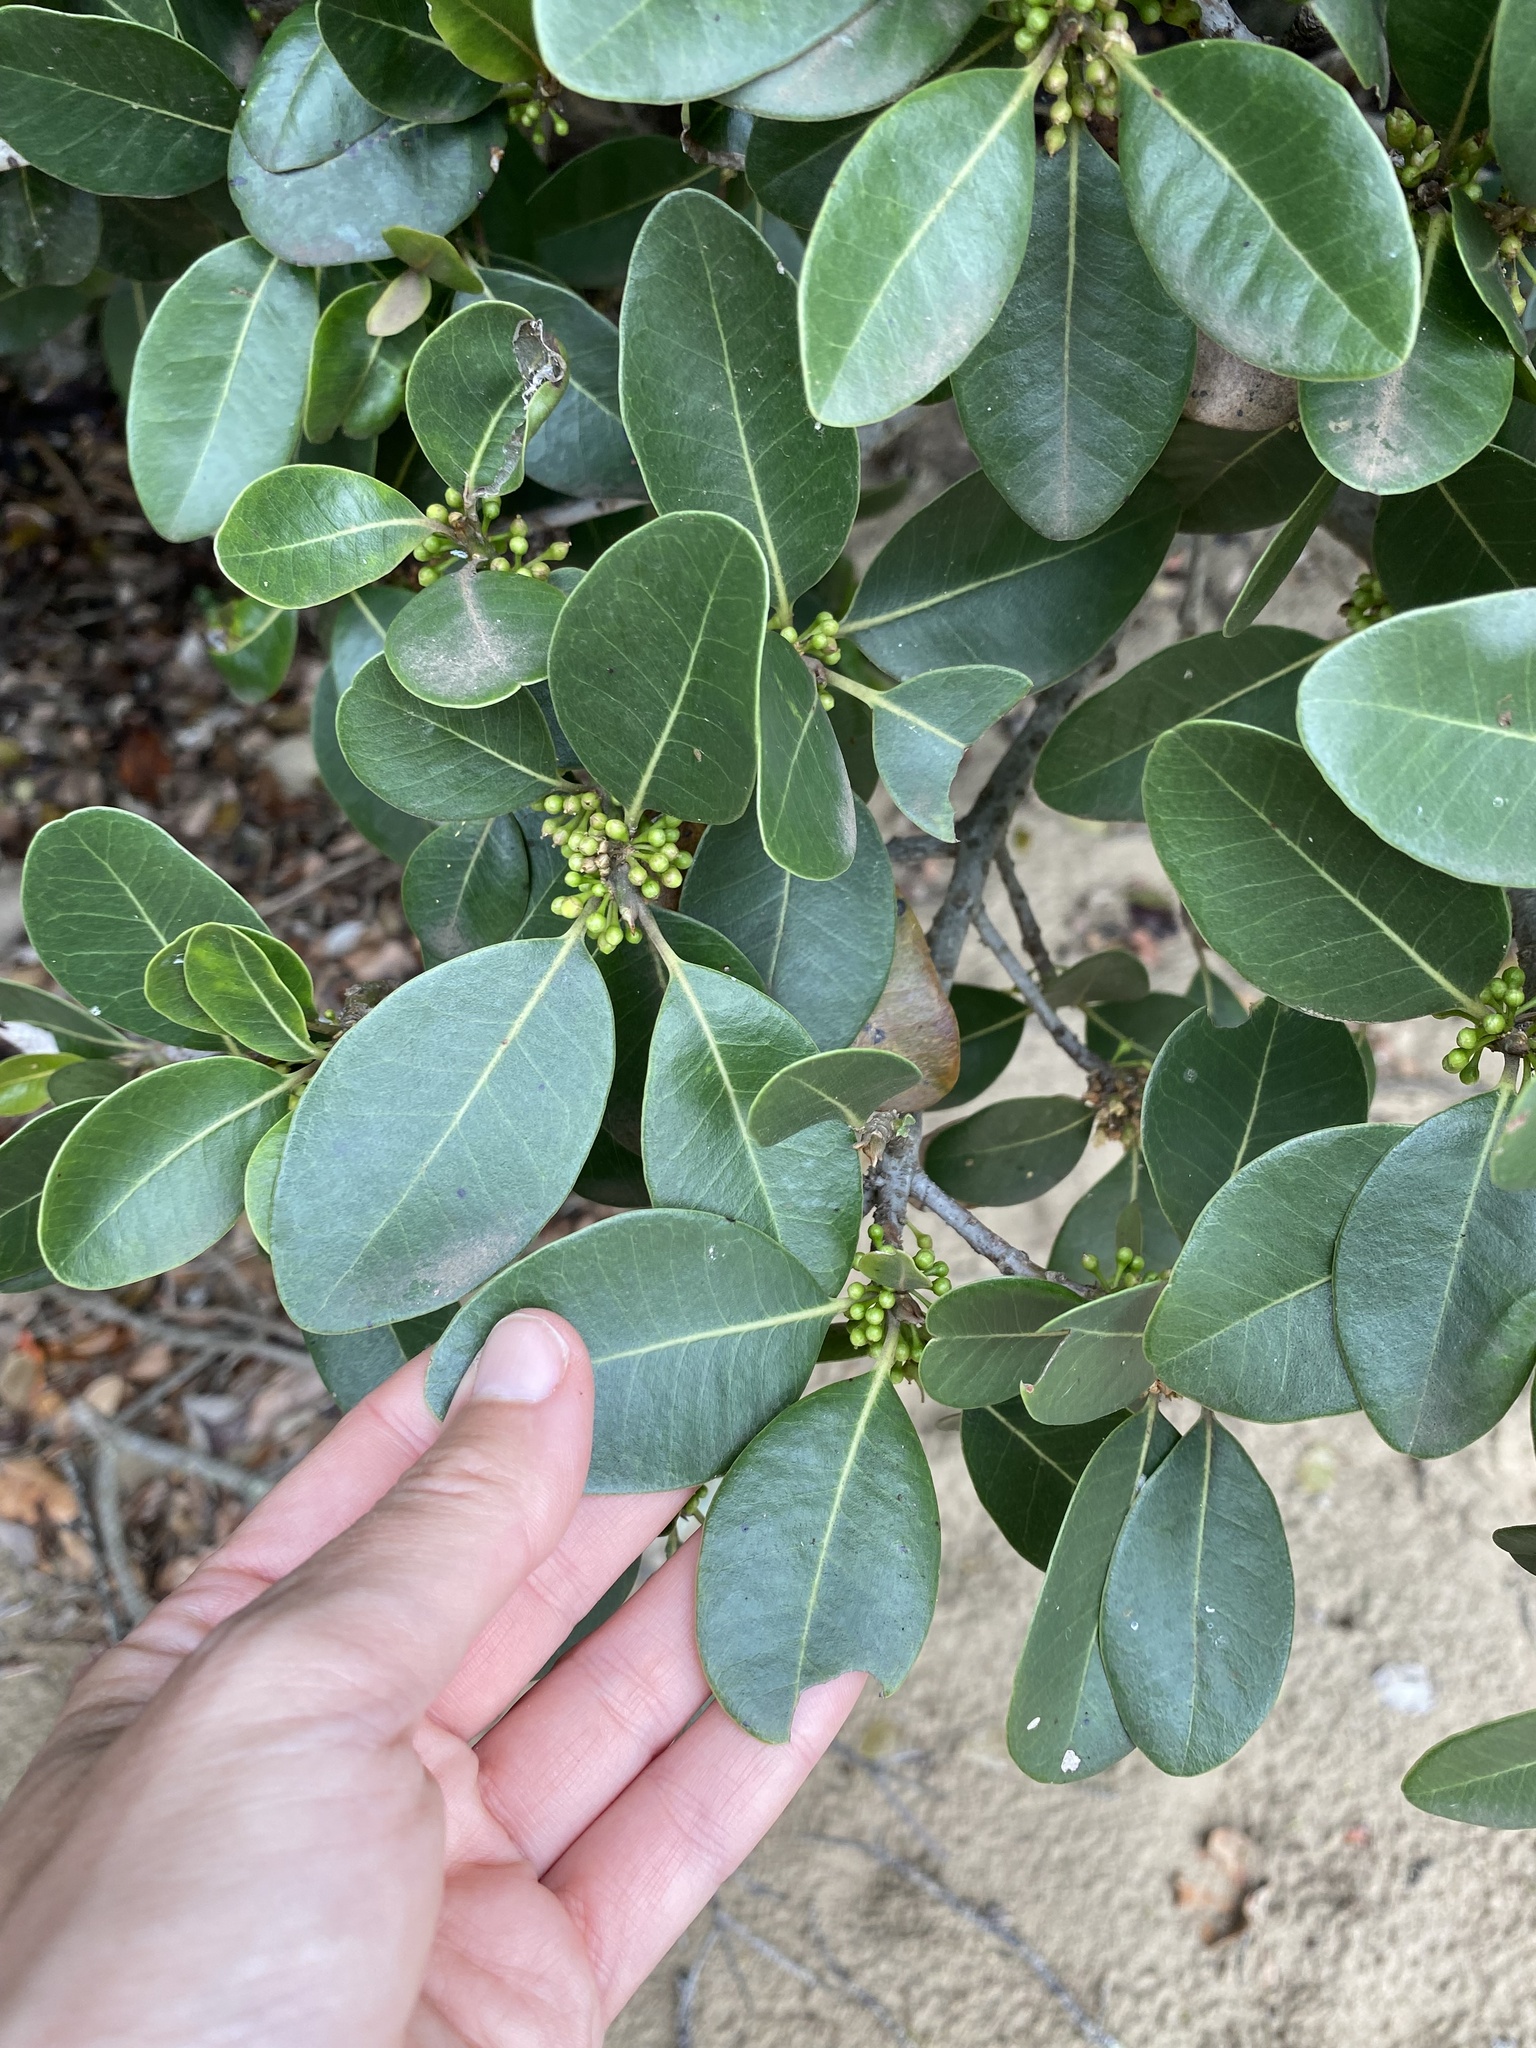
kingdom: Plantae
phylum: Tracheophyta
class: Magnoliopsida
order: Ericales
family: Sapotaceae
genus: Sideroxylon
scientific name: Sideroxylon inerme
